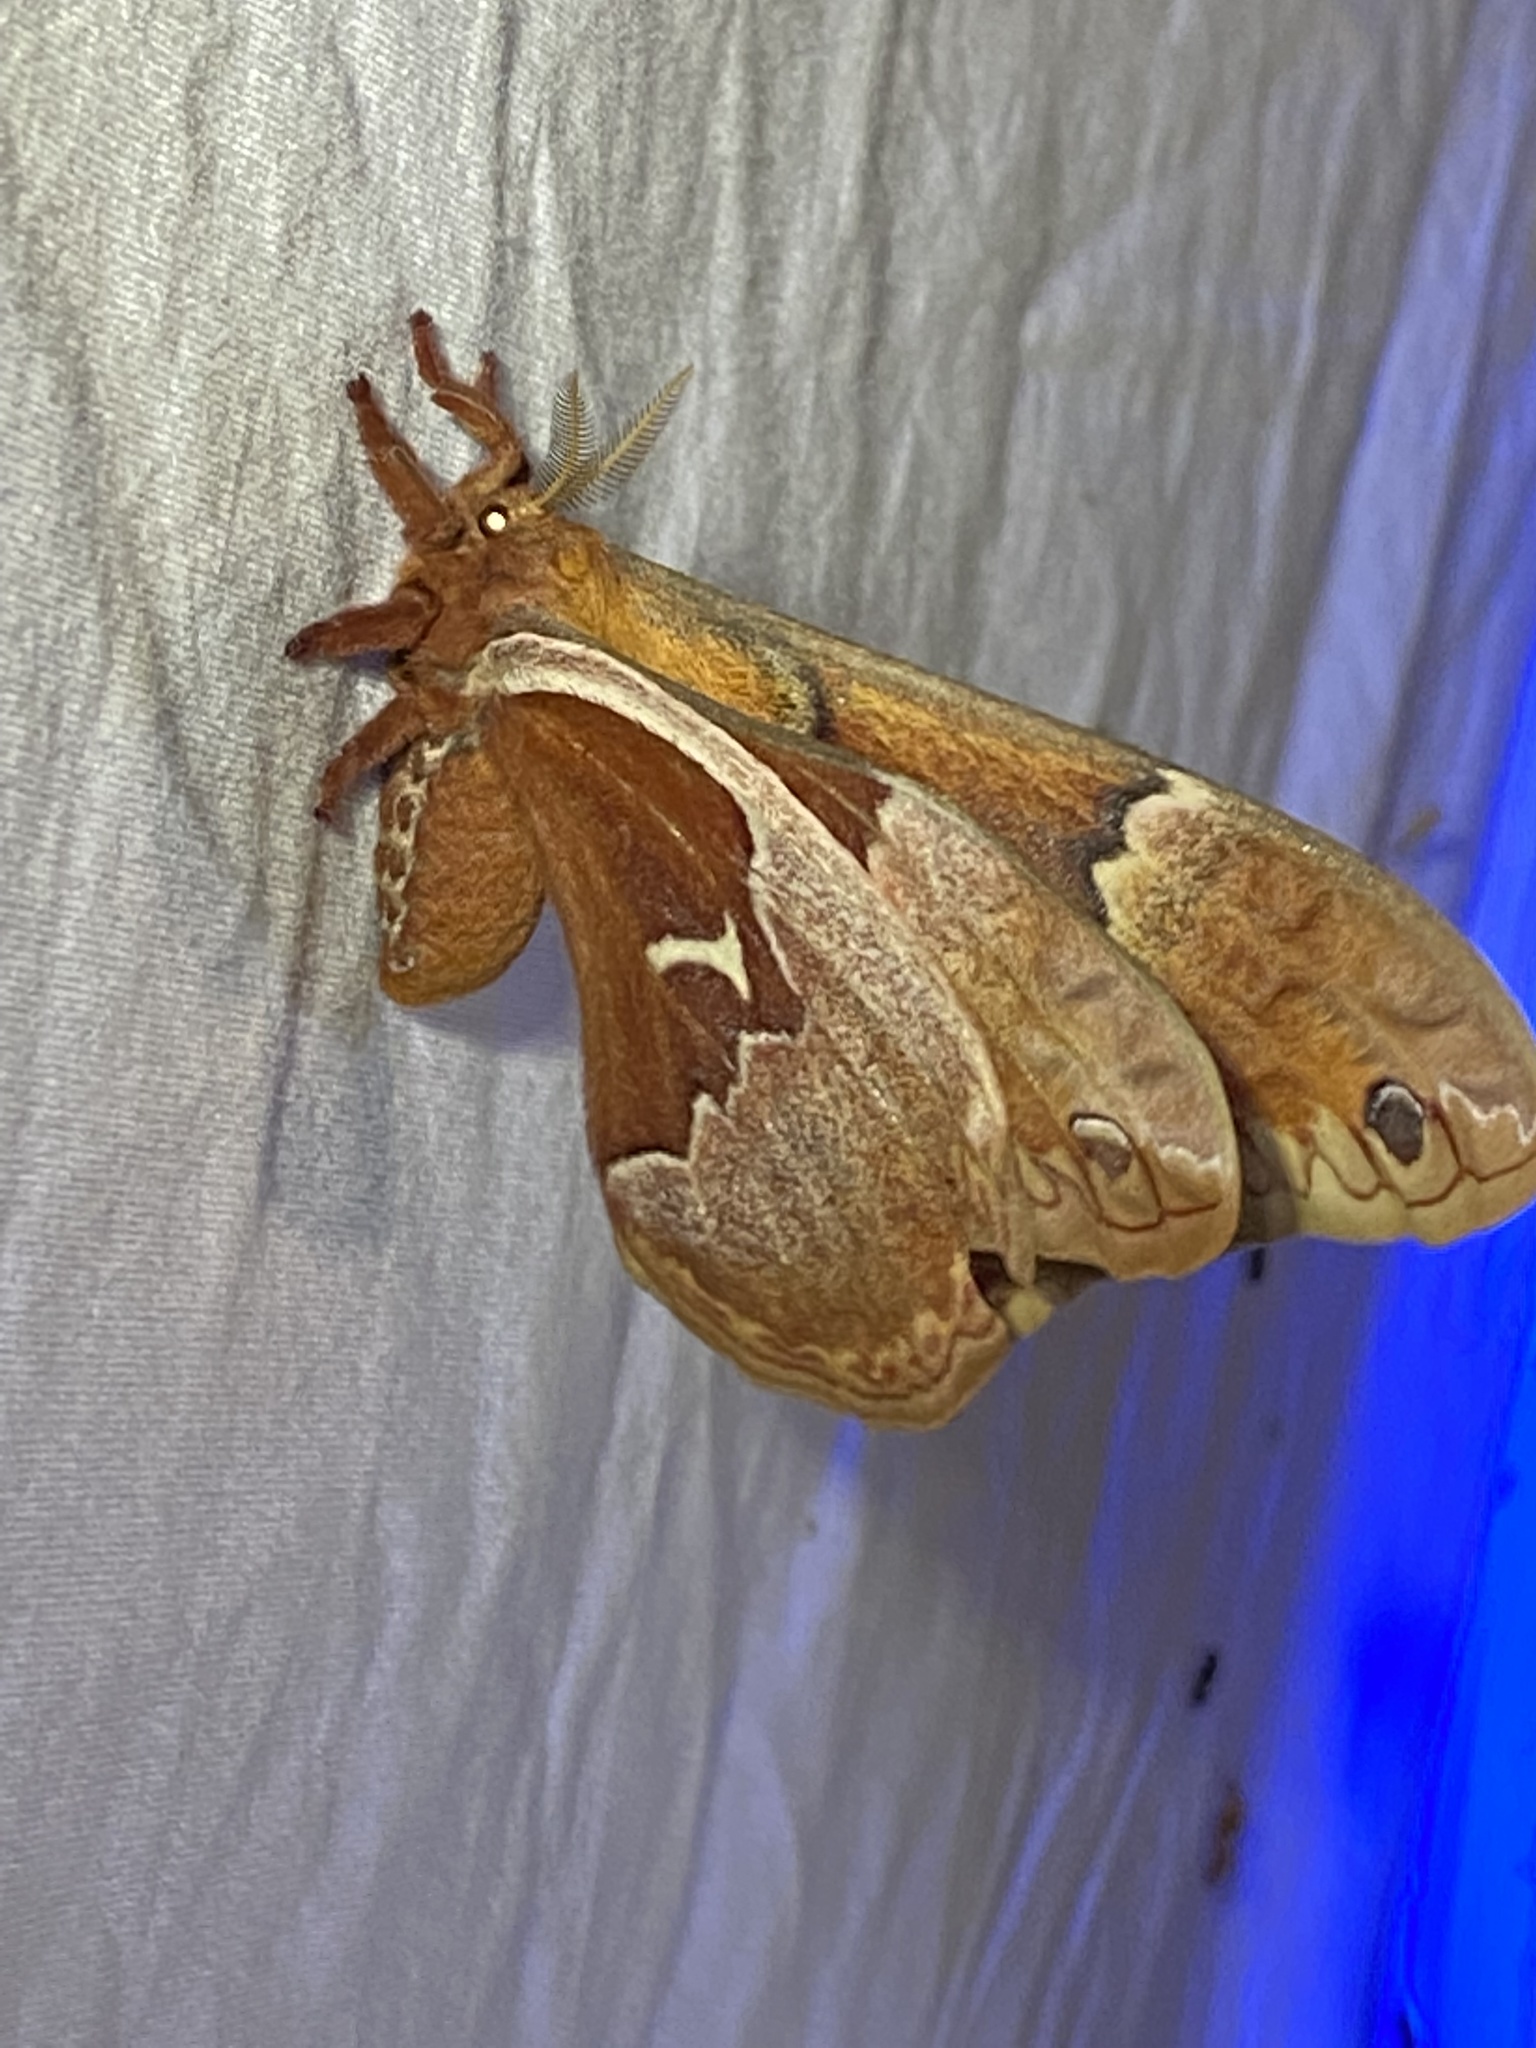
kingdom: Animalia
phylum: Arthropoda
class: Insecta
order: Lepidoptera
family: Saturniidae
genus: Callosamia
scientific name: Callosamia angulifera
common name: Tulip tree silkmoth
